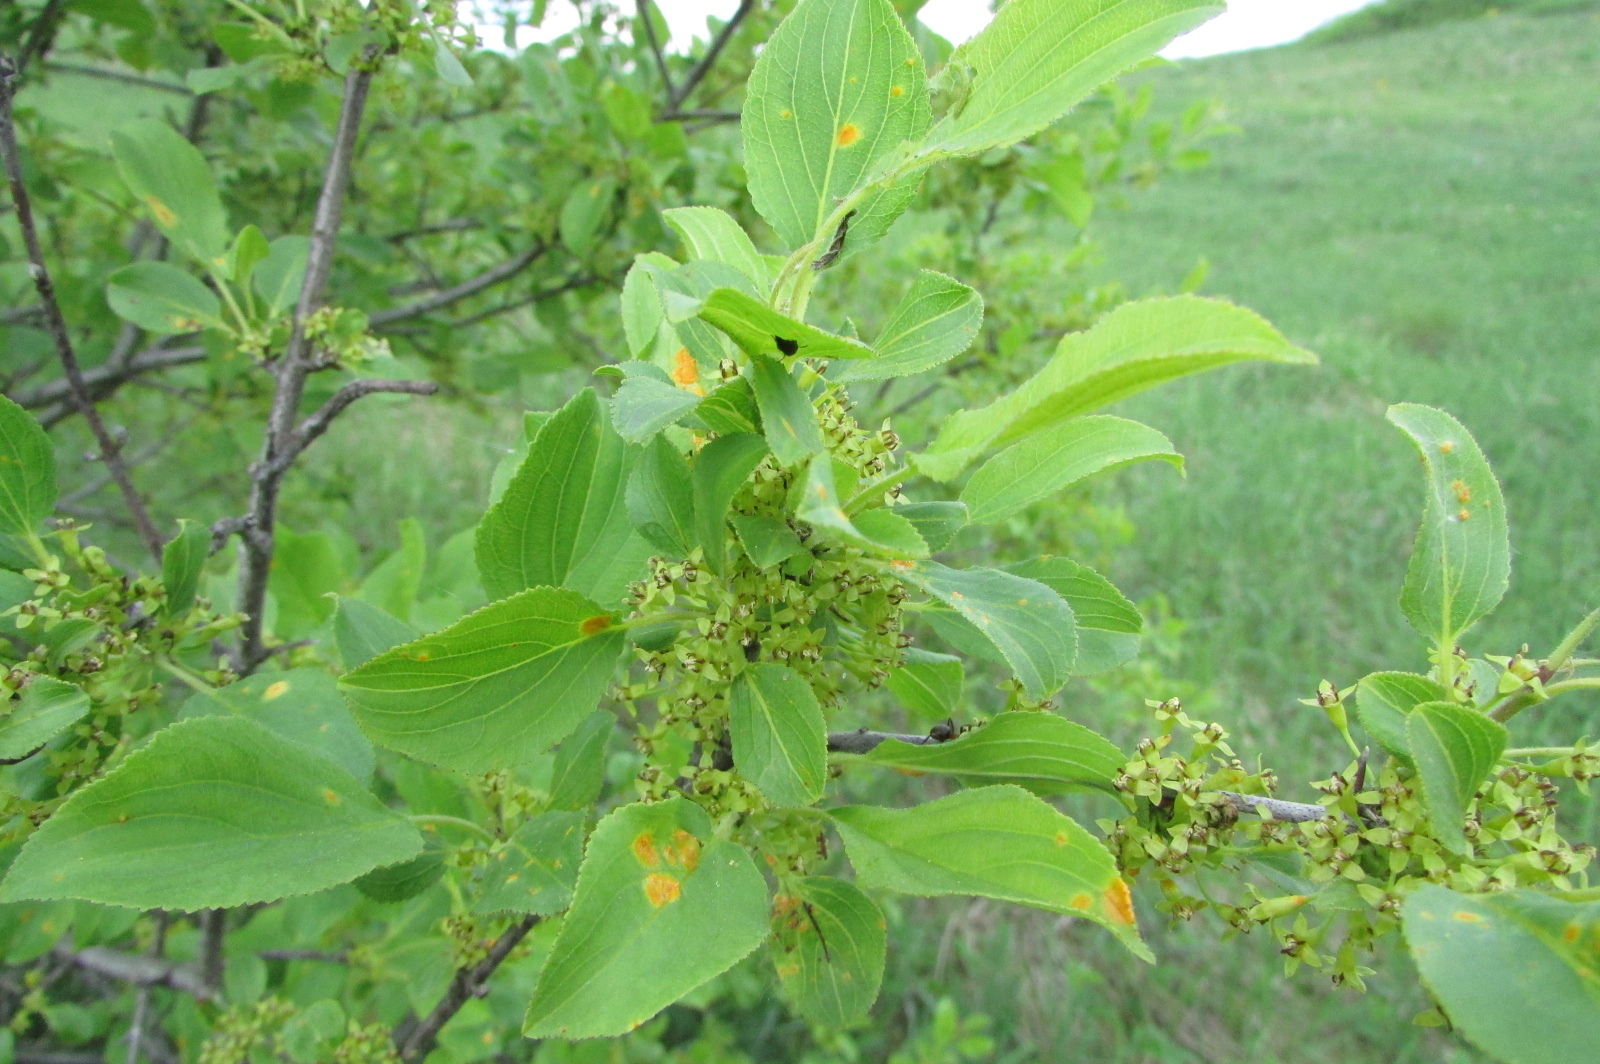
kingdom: Plantae
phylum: Tracheophyta
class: Magnoliopsida
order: Rosales
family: Rhamnaceae
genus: Rhamnus
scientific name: Rhamnus cathartica
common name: Common buckthorn
